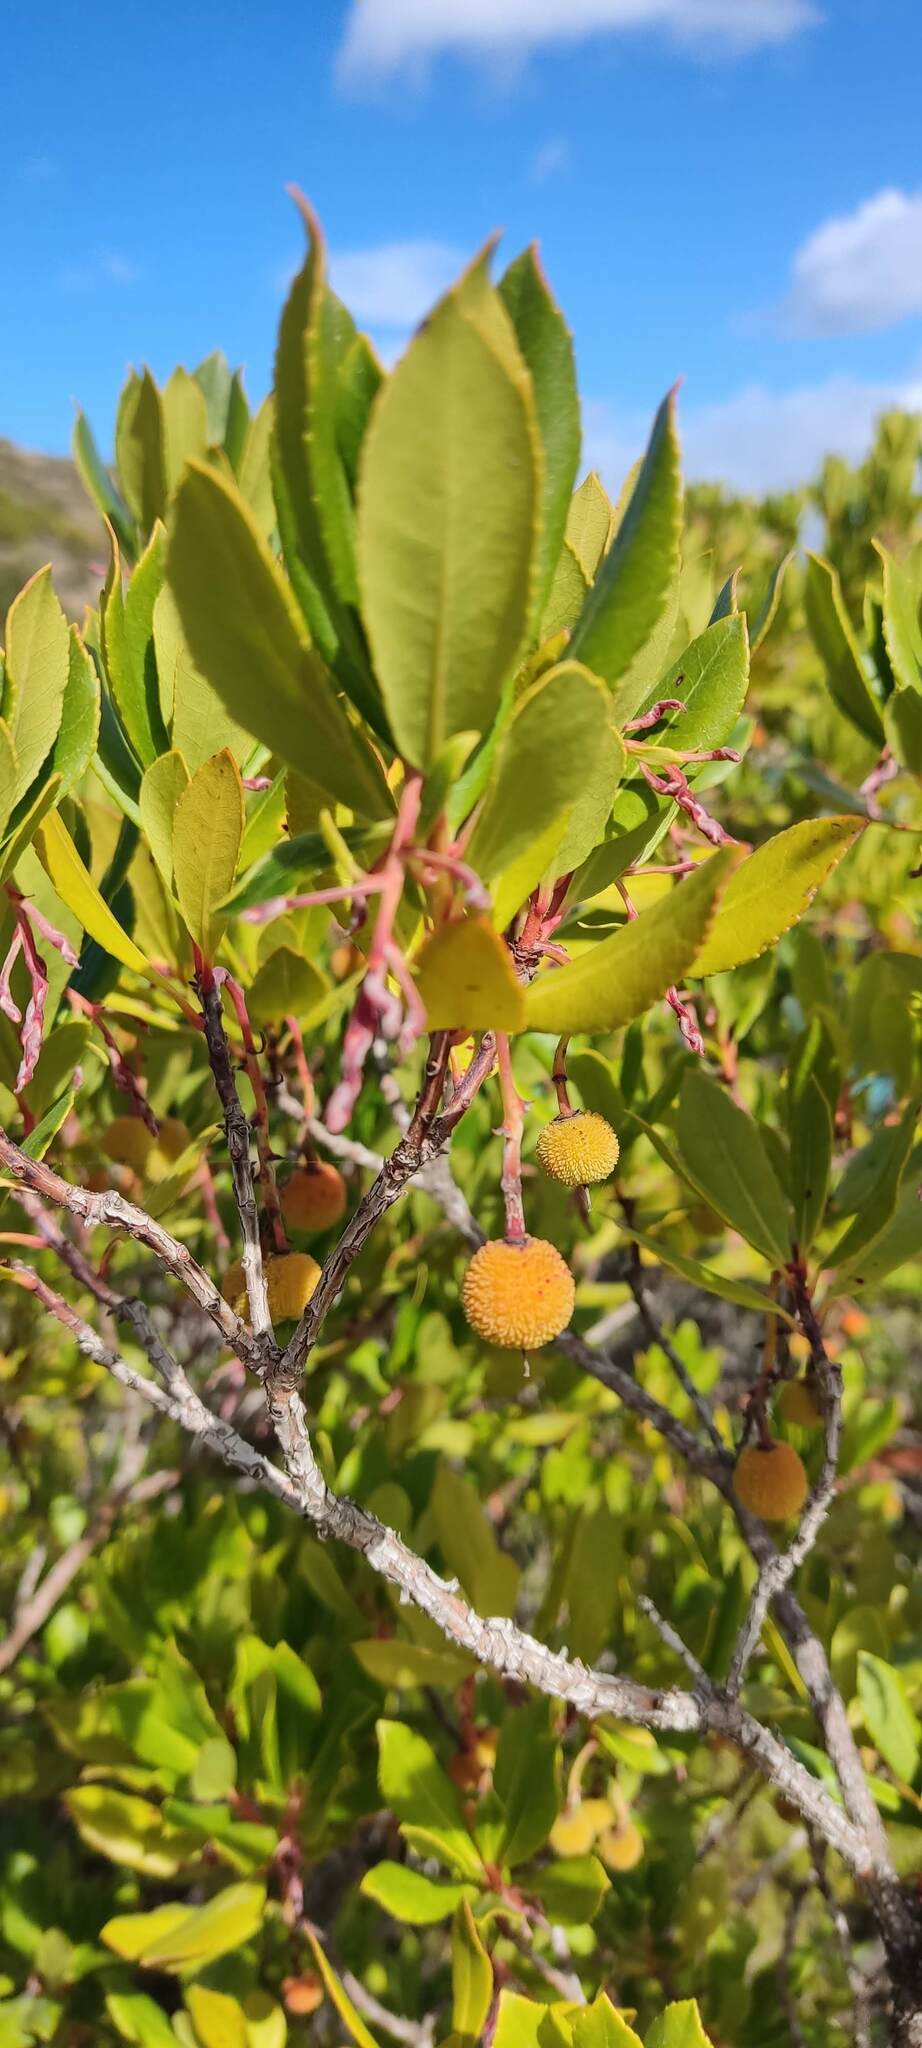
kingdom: Plantae
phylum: Tracheophyta
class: Magnoliopsida
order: Ericales
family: Ericaceae
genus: Arbutus
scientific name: Arbutus unedo
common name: Strawberry-tree
